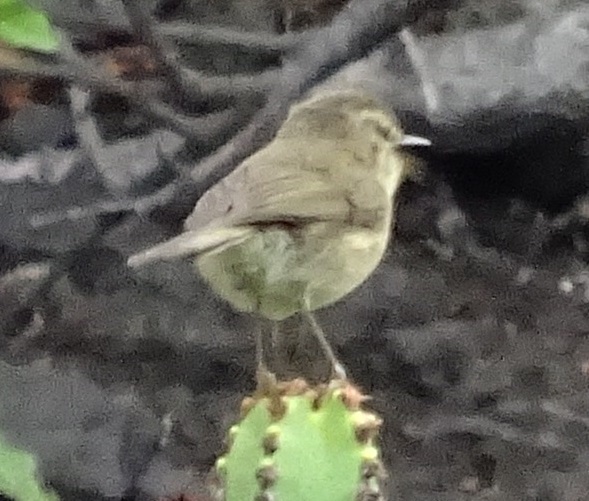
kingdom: Animalia
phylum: Chordata
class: Aves
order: Passeriformes
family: Phylloscopidae
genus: Phylloscopus
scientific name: Phylloscopus canariensis
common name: Canary islands chiffchaff
